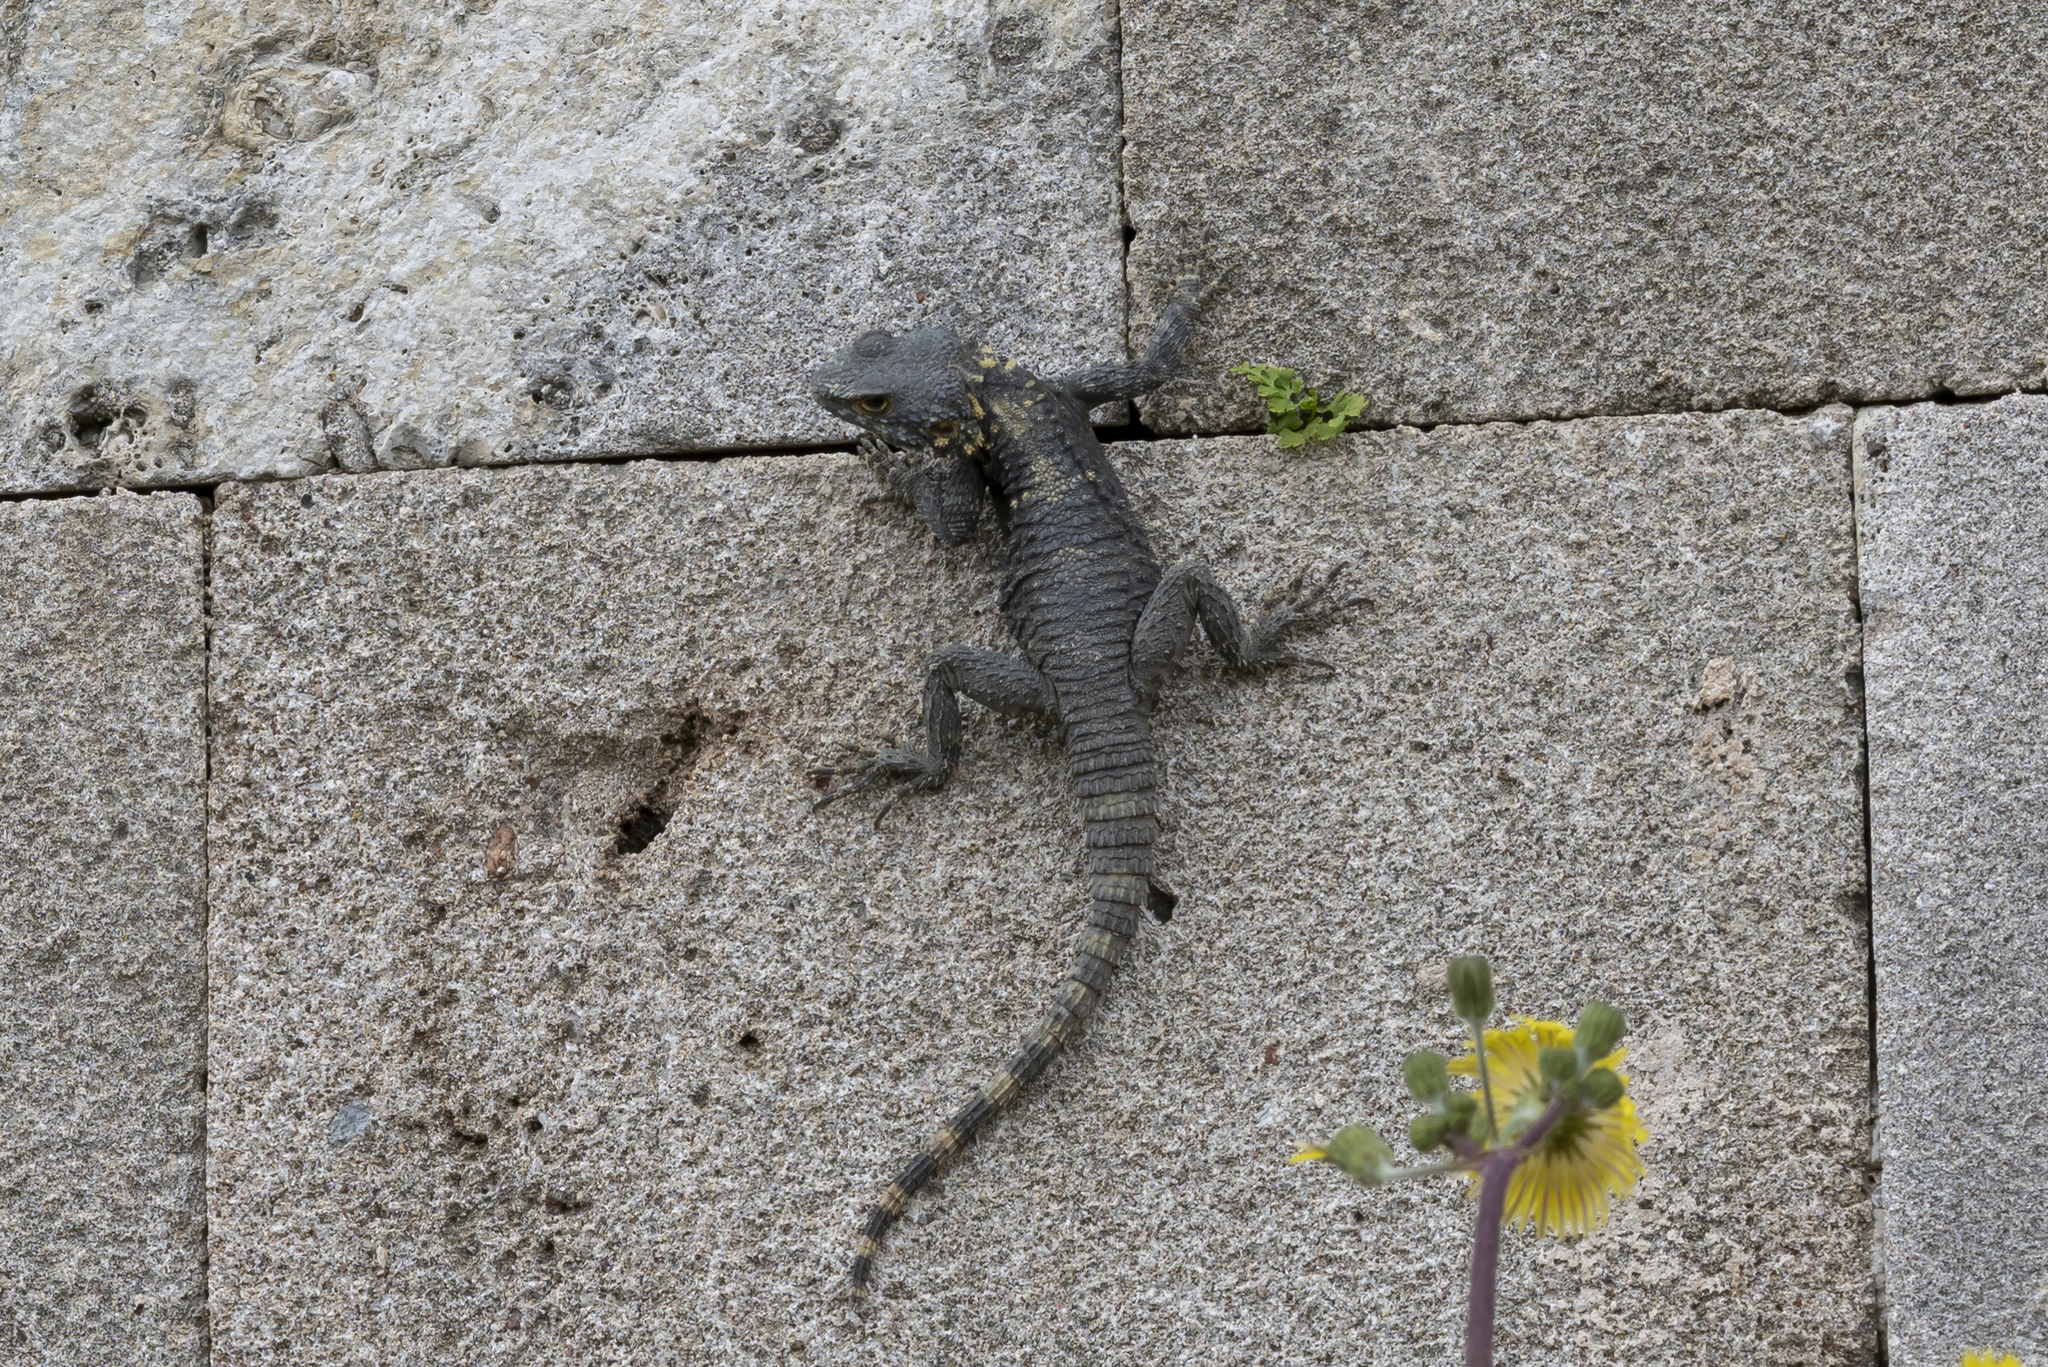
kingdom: Animalia
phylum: Chordata
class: Squamata
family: Agamidae
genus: Stellagama
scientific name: Stellagama stellio
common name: Starred agama
